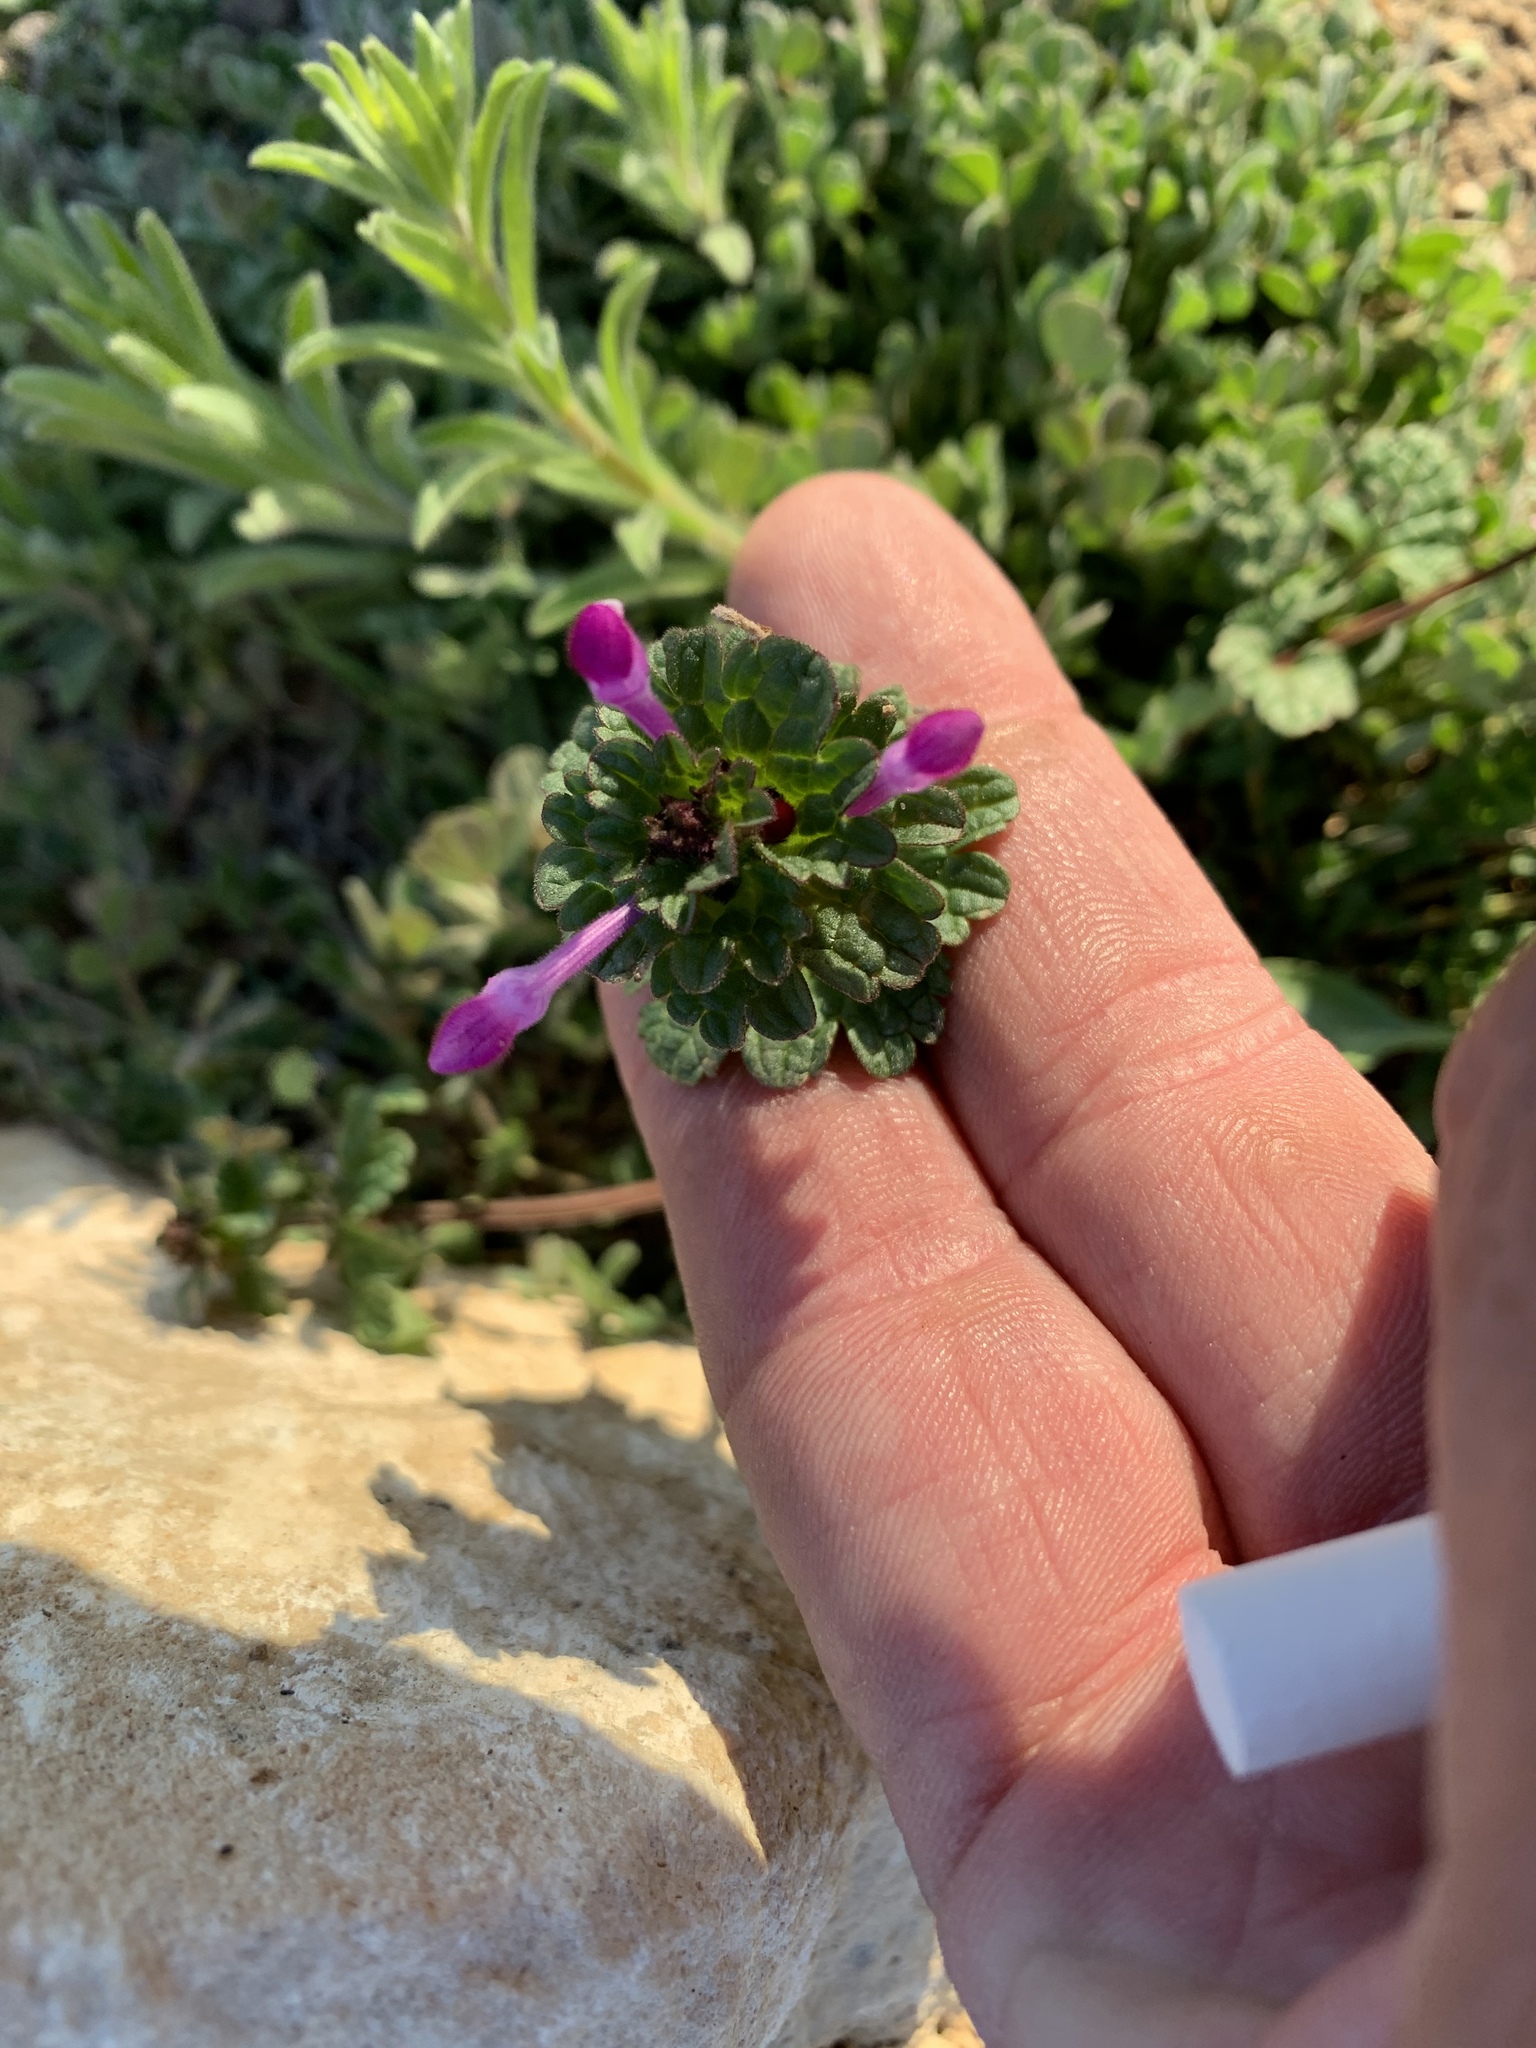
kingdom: Plantae
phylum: Tracheophyta
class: Magnoliopsida
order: Lamiales
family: Lamiaceae
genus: Lamium
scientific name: Lamium amplexicaule
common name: Henbit dead-nettle
